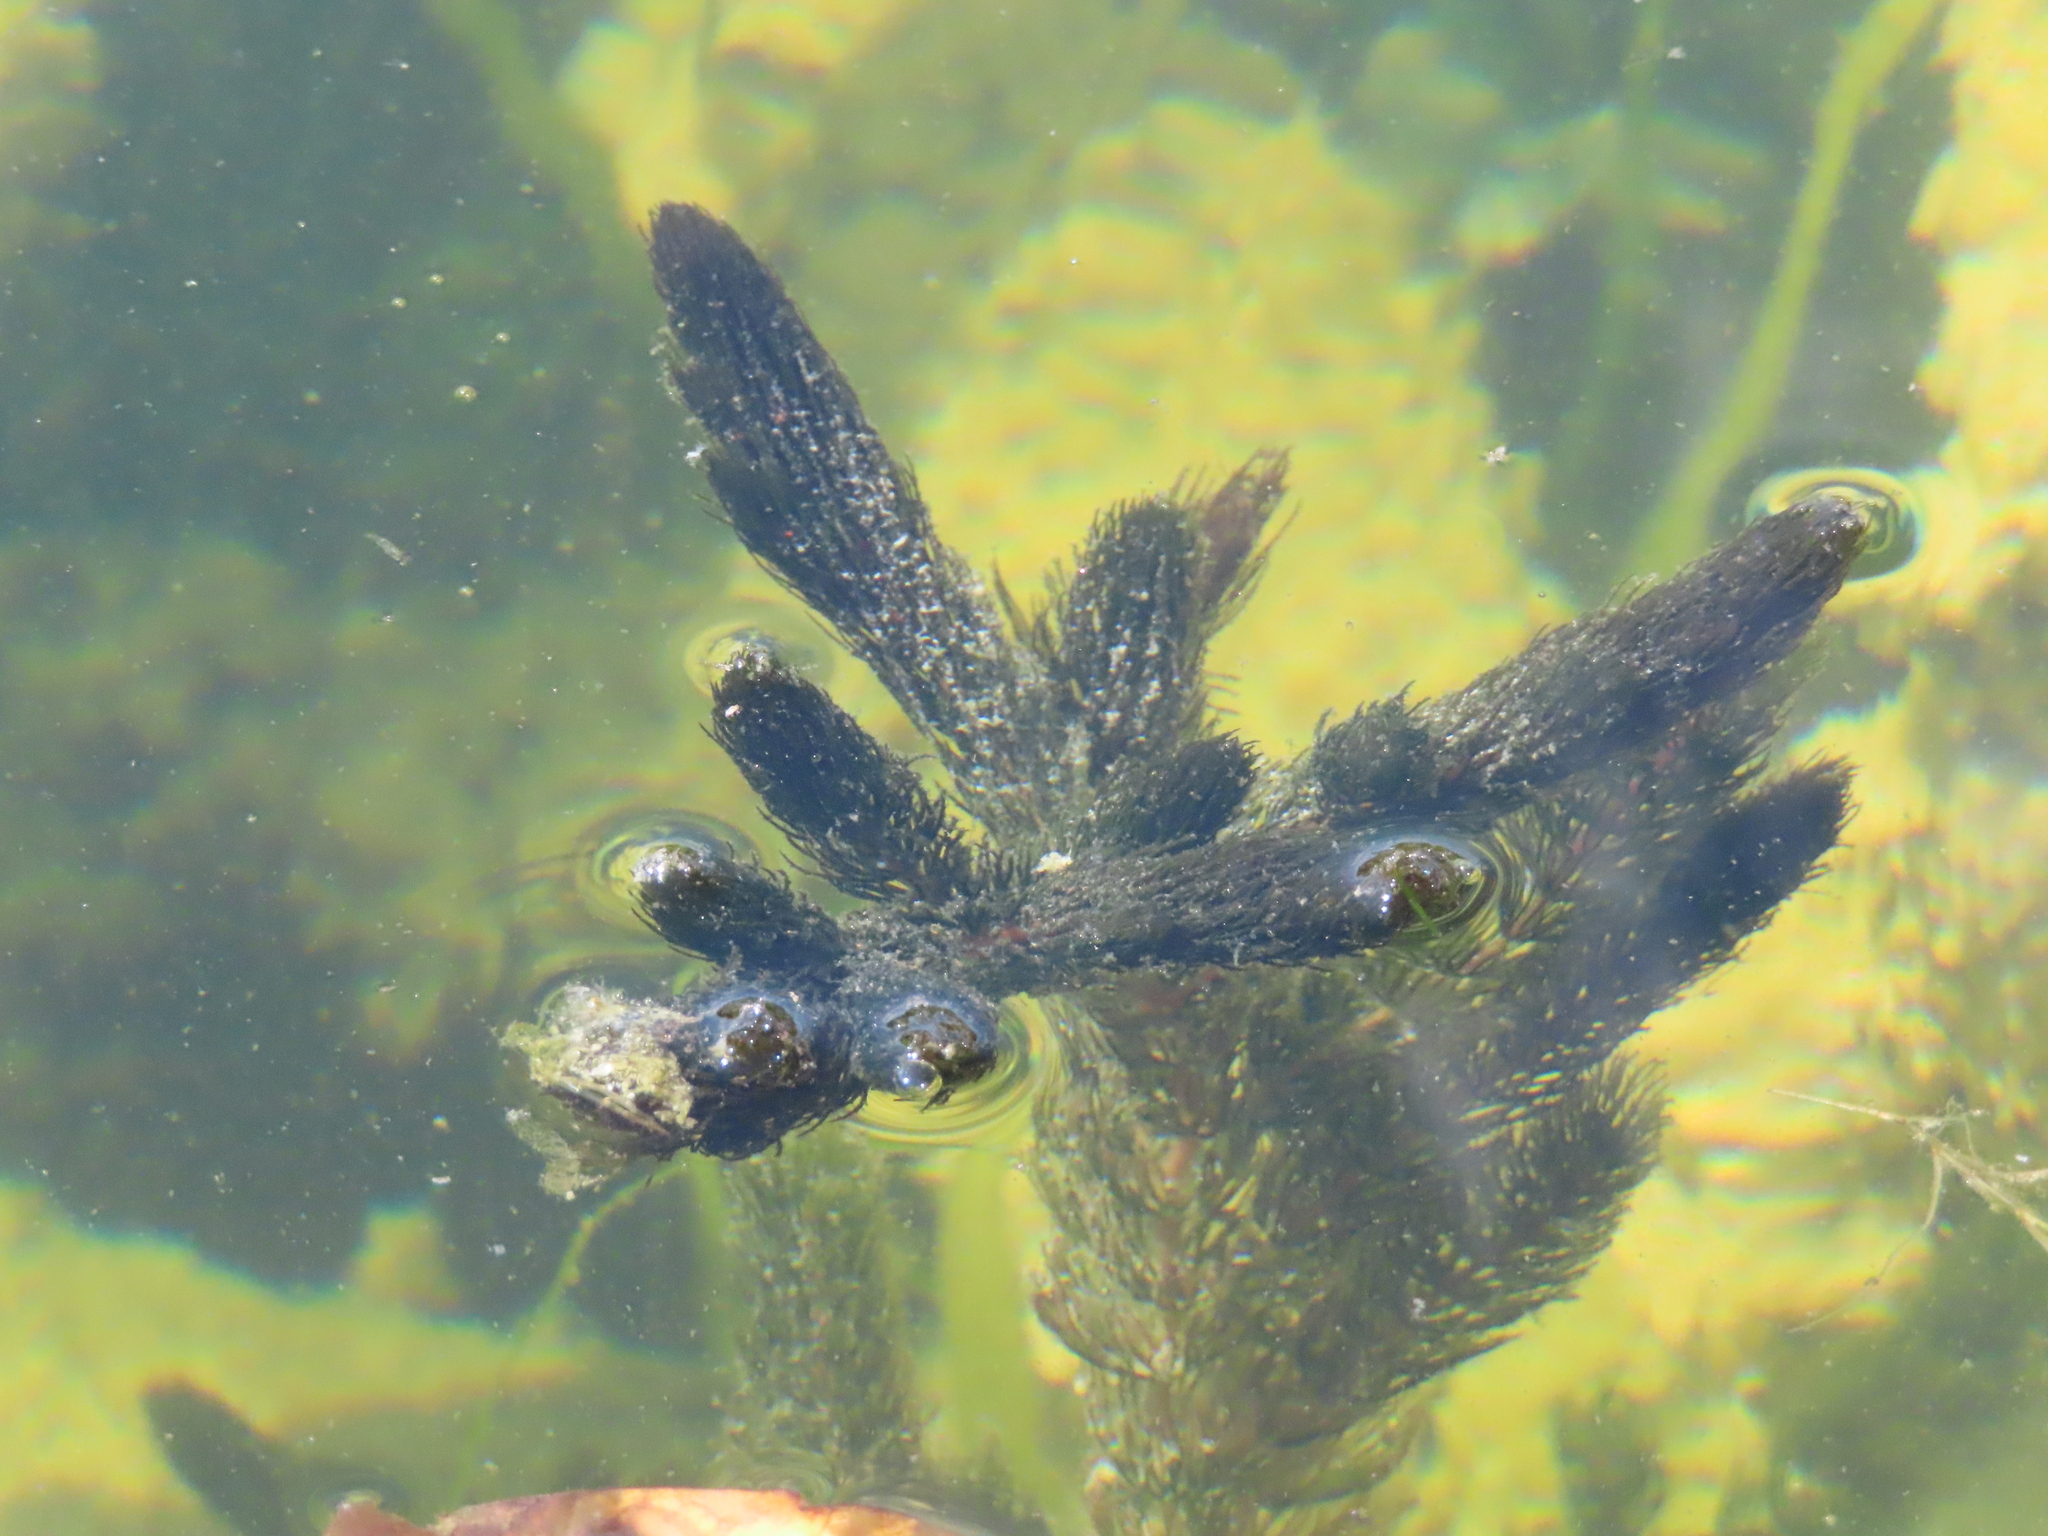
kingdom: Plantae
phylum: Tracheophyta
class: Magnoliopsida
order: Ceratophyllales
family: Ceratophyllaceae
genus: Ceratophyllum
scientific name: Ceratophyllum demersum
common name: Rigid hornwort
